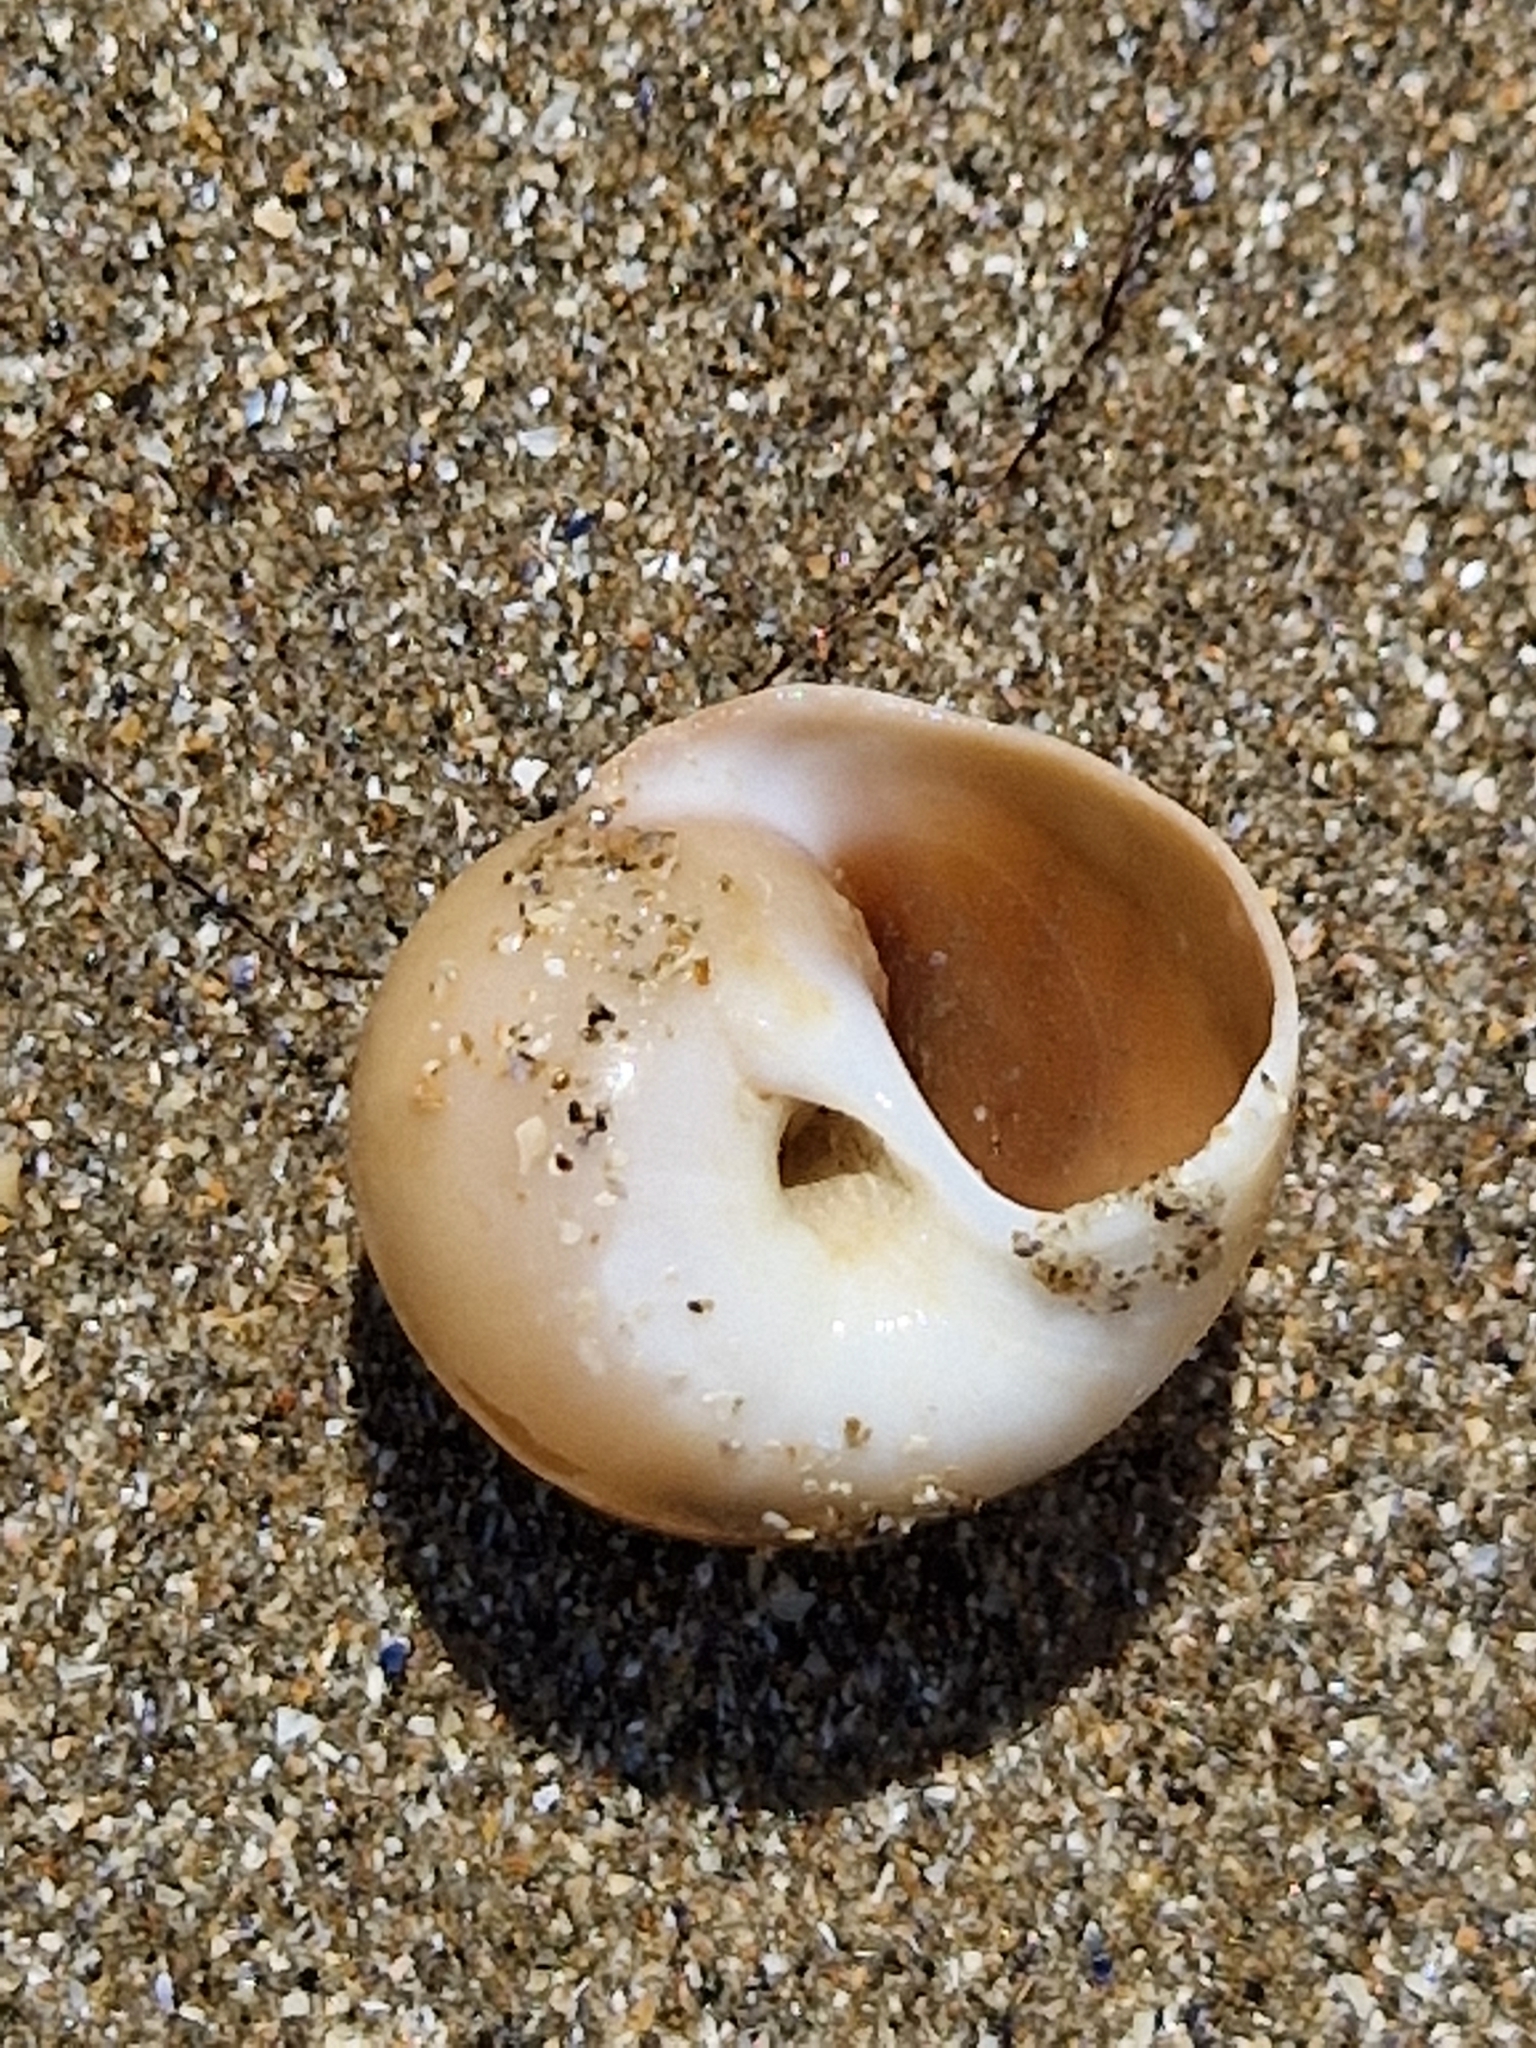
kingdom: Animalia
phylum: Mollusca
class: Gastropoda
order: Littorinimorpha
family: Naticidae
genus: Euspira
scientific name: Euspira catena
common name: Necklace shell
